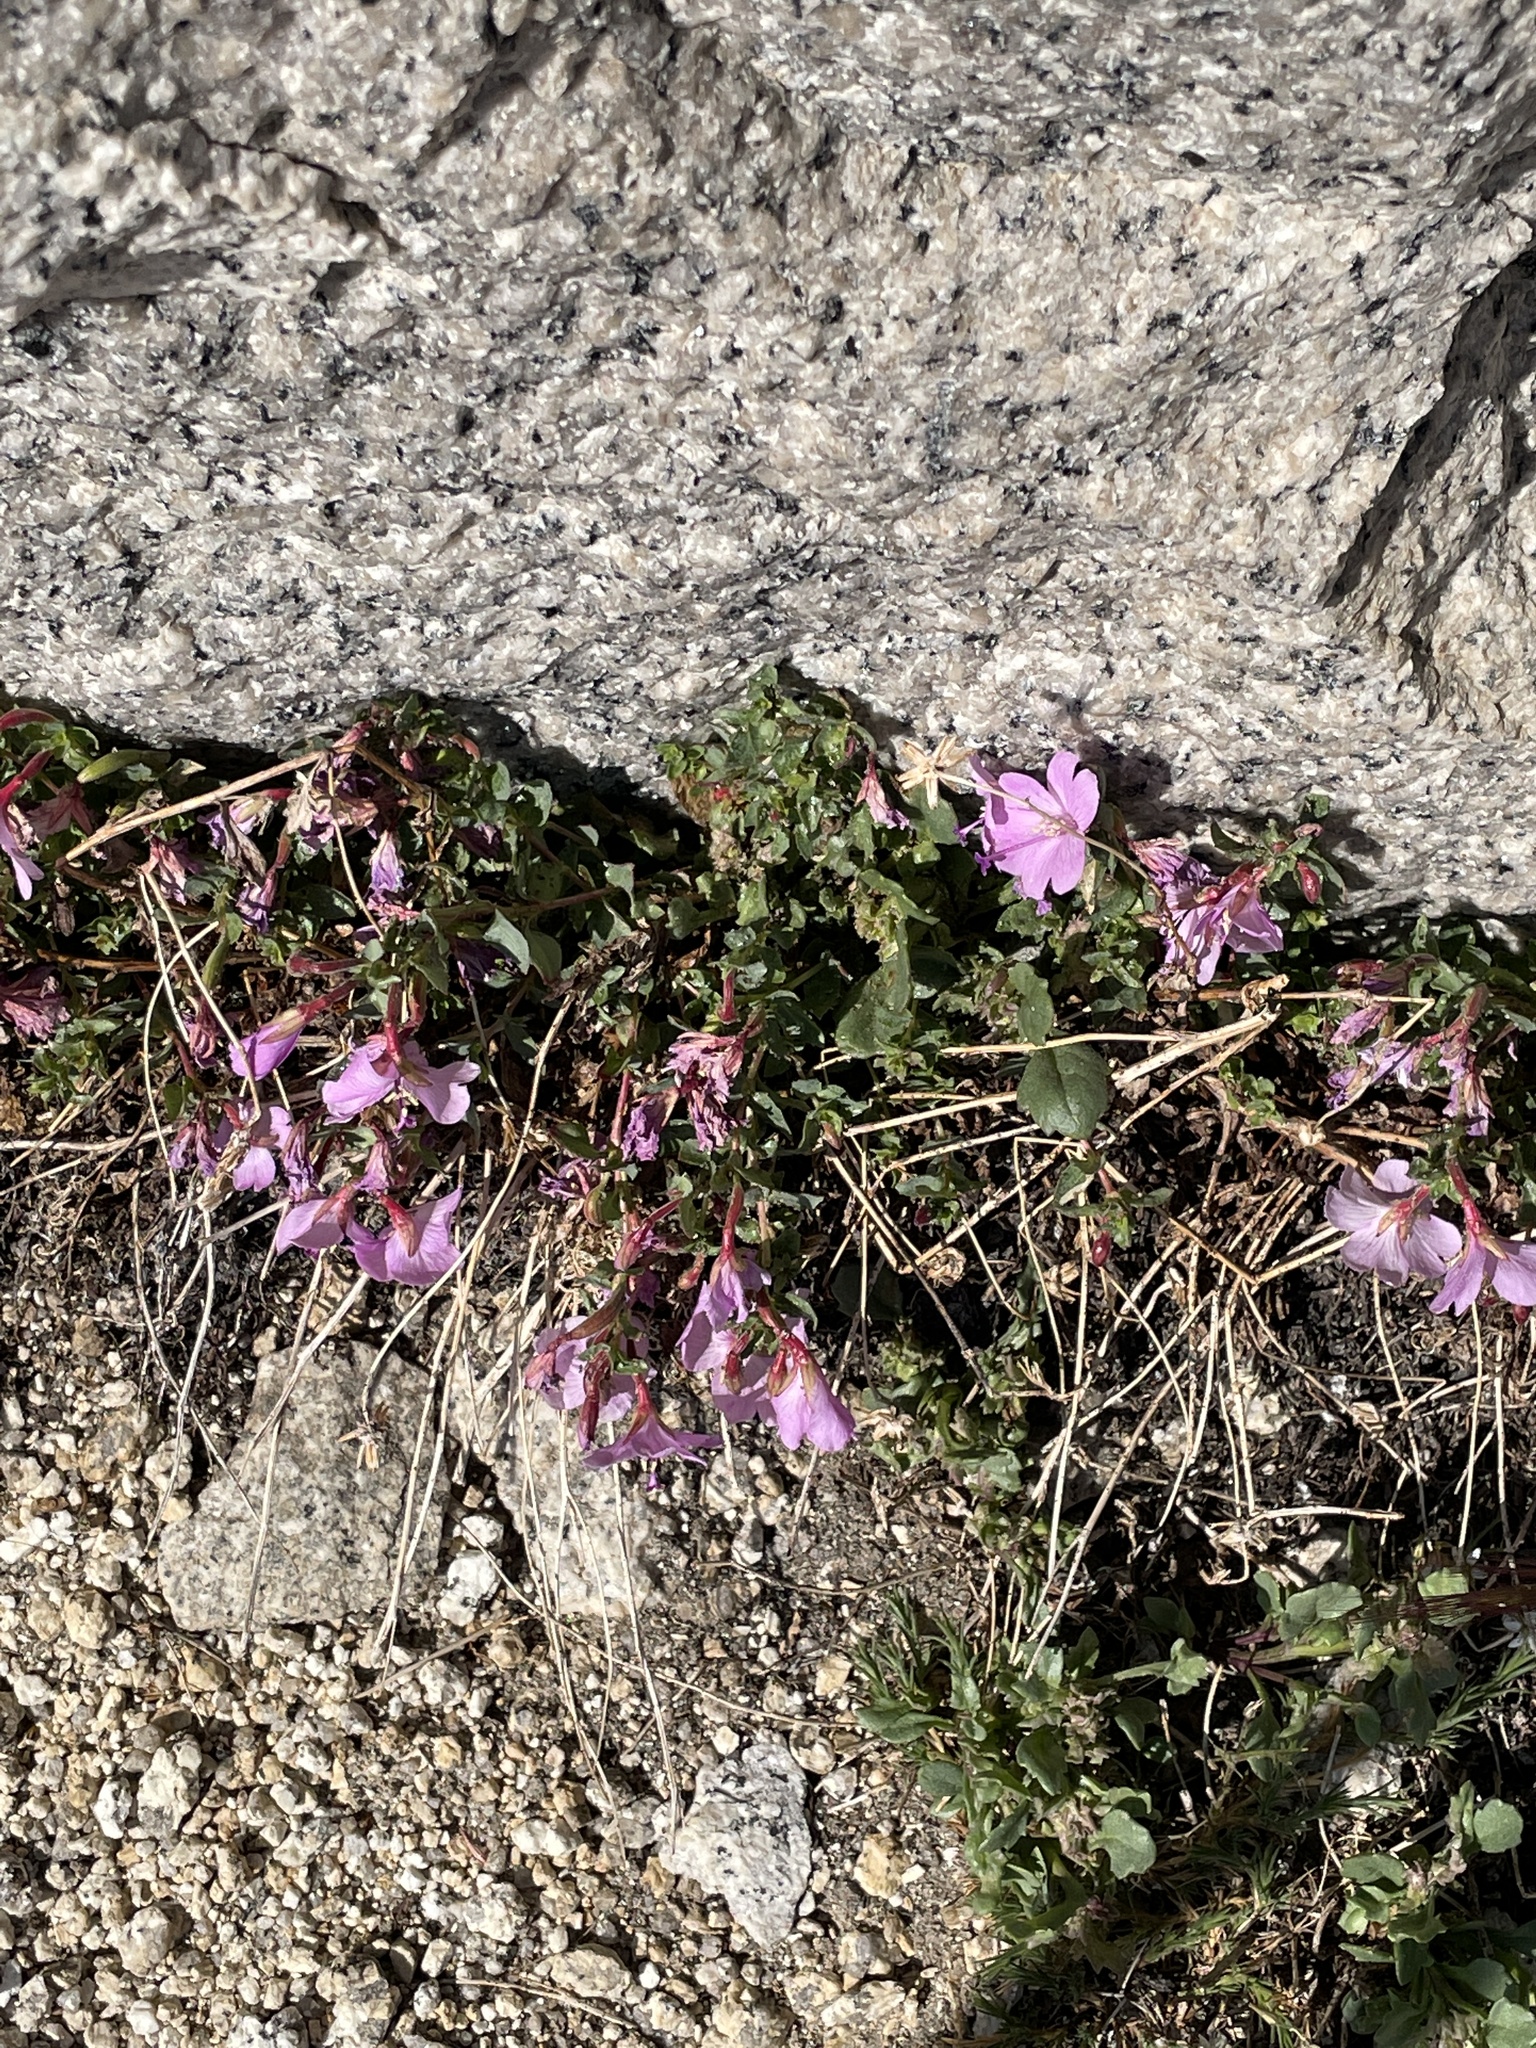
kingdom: Plantae
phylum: Tracheophyta
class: Magnoliopsida
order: Myrtales
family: Onagraceae
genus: Epilobium
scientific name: Epilobium obcordatum
